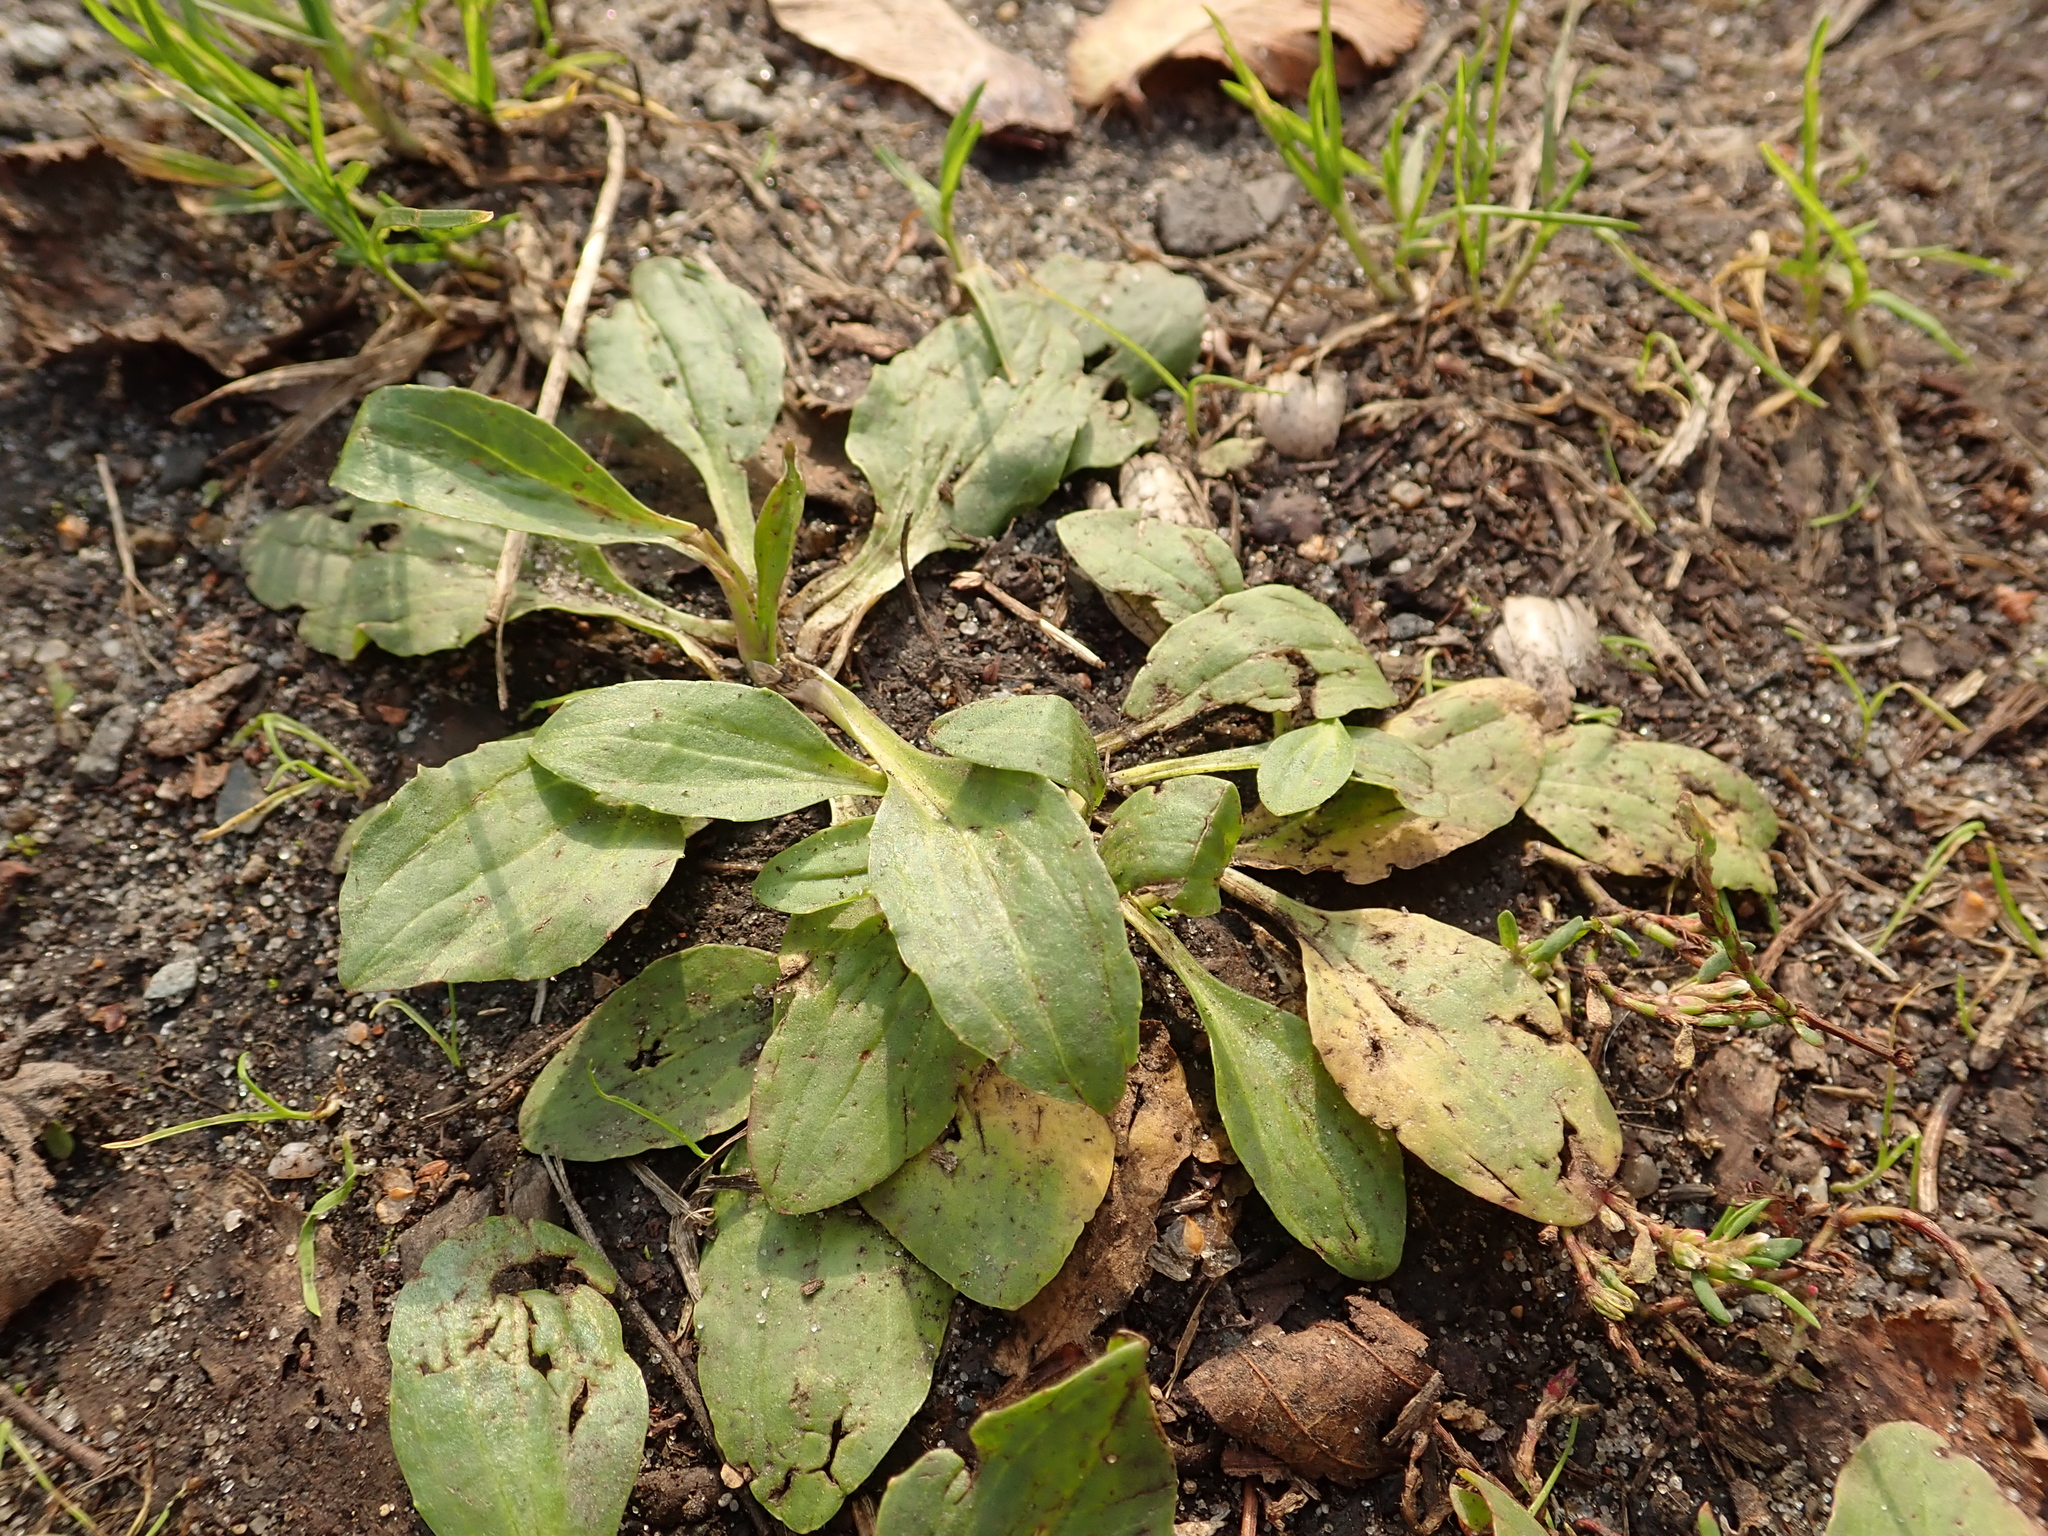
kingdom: Plantae
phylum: Tracheophyta
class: Magnoliopsida
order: Lamiales
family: Plantaginaceae
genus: Plantago
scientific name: Plantago major
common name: Common plantain
